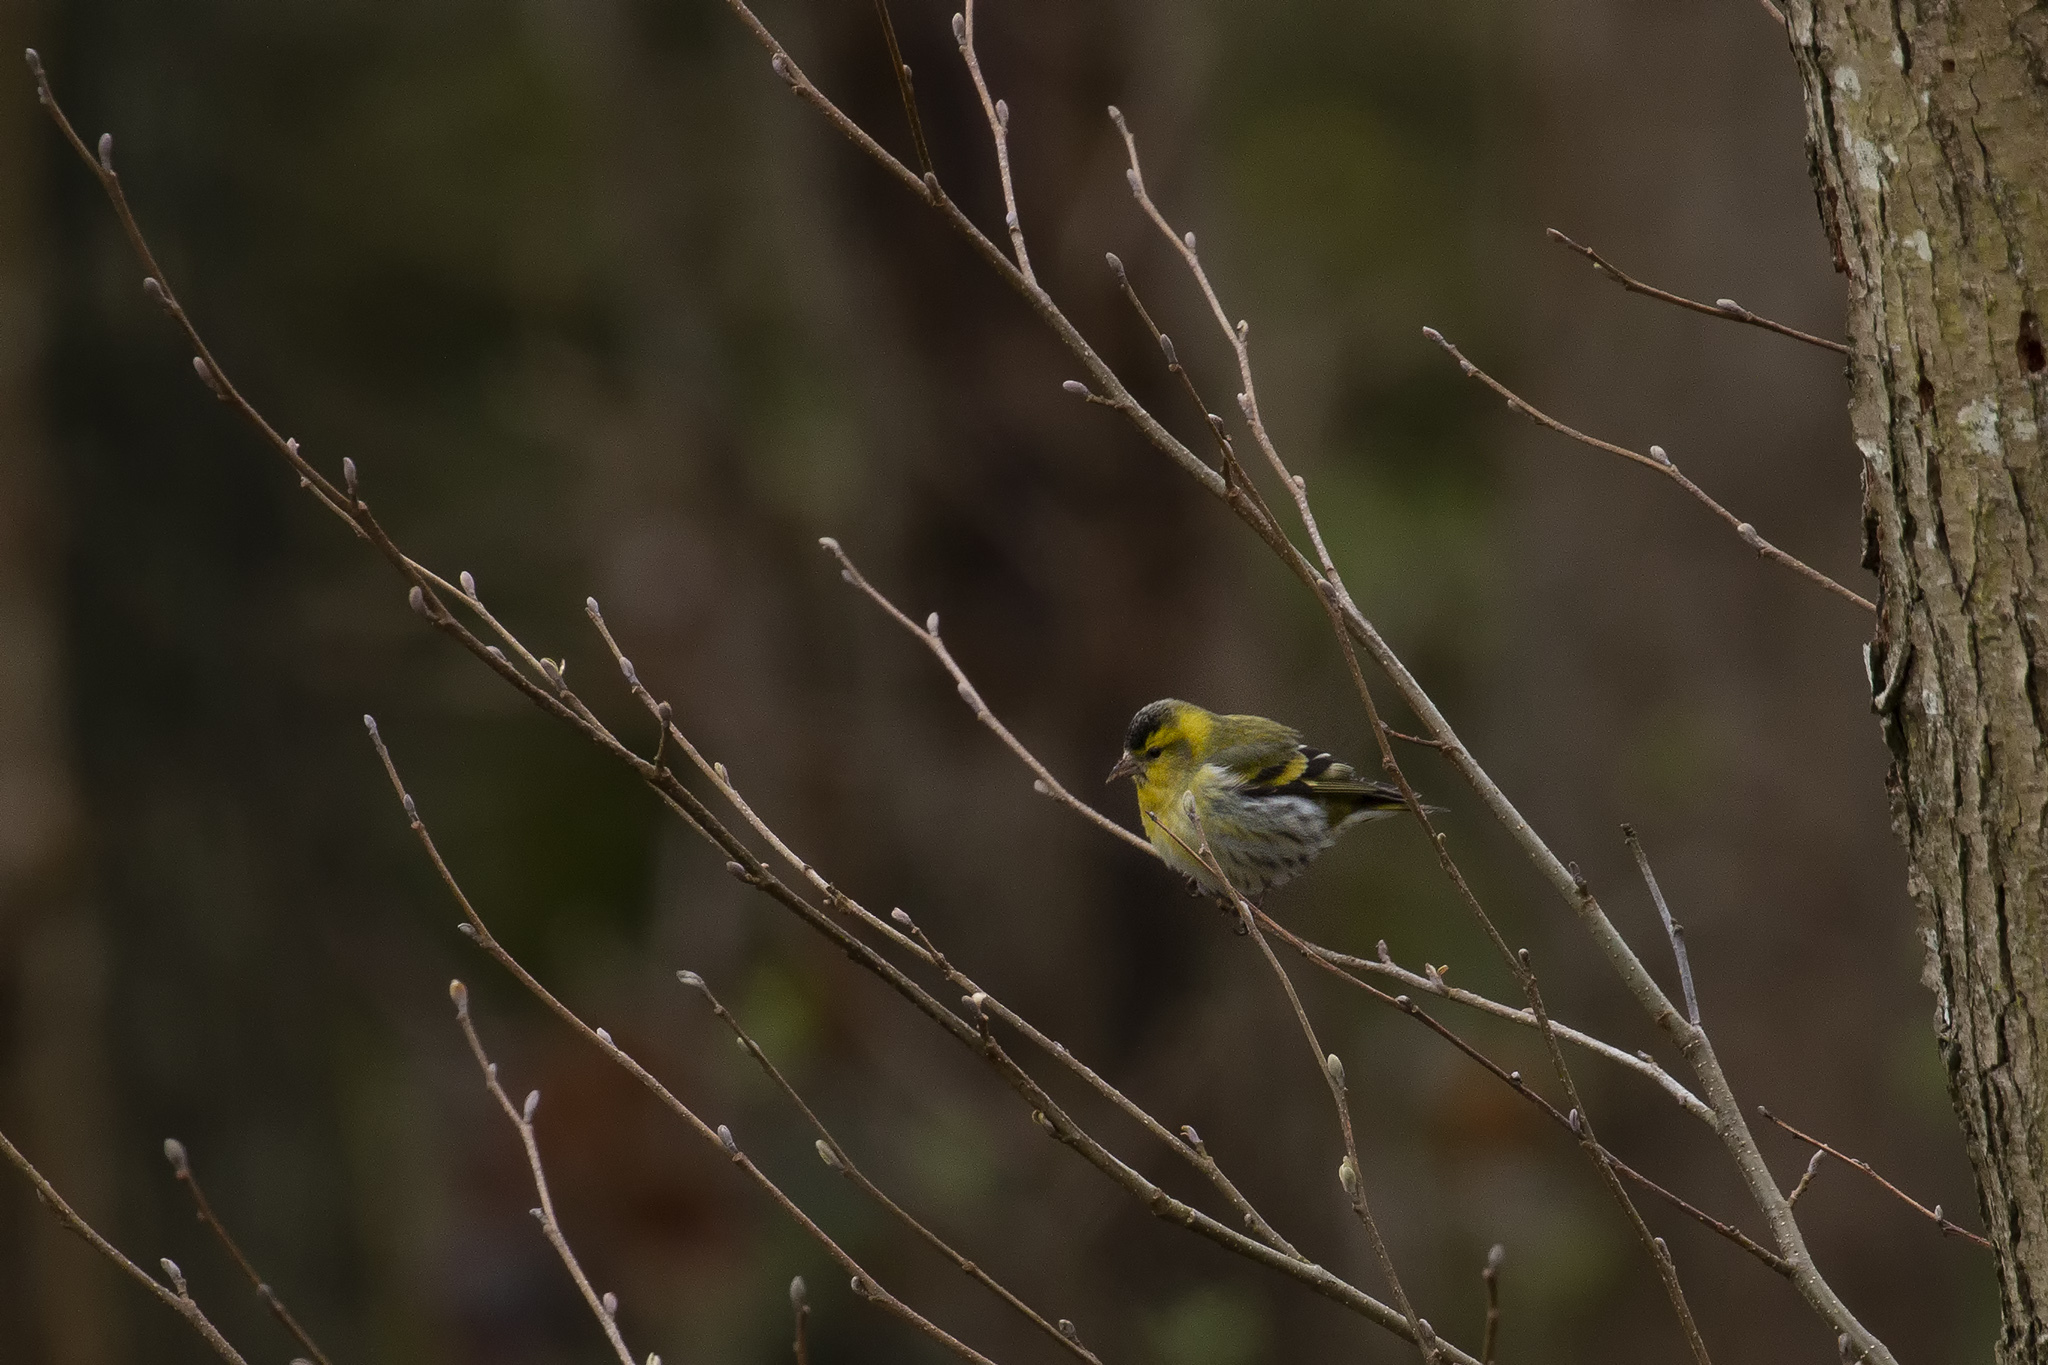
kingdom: Animalia
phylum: Chordata
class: Aves
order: Passeriformes
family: Fringillidae
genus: Spinus
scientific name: Spinus spinus
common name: Eurasian siskin
